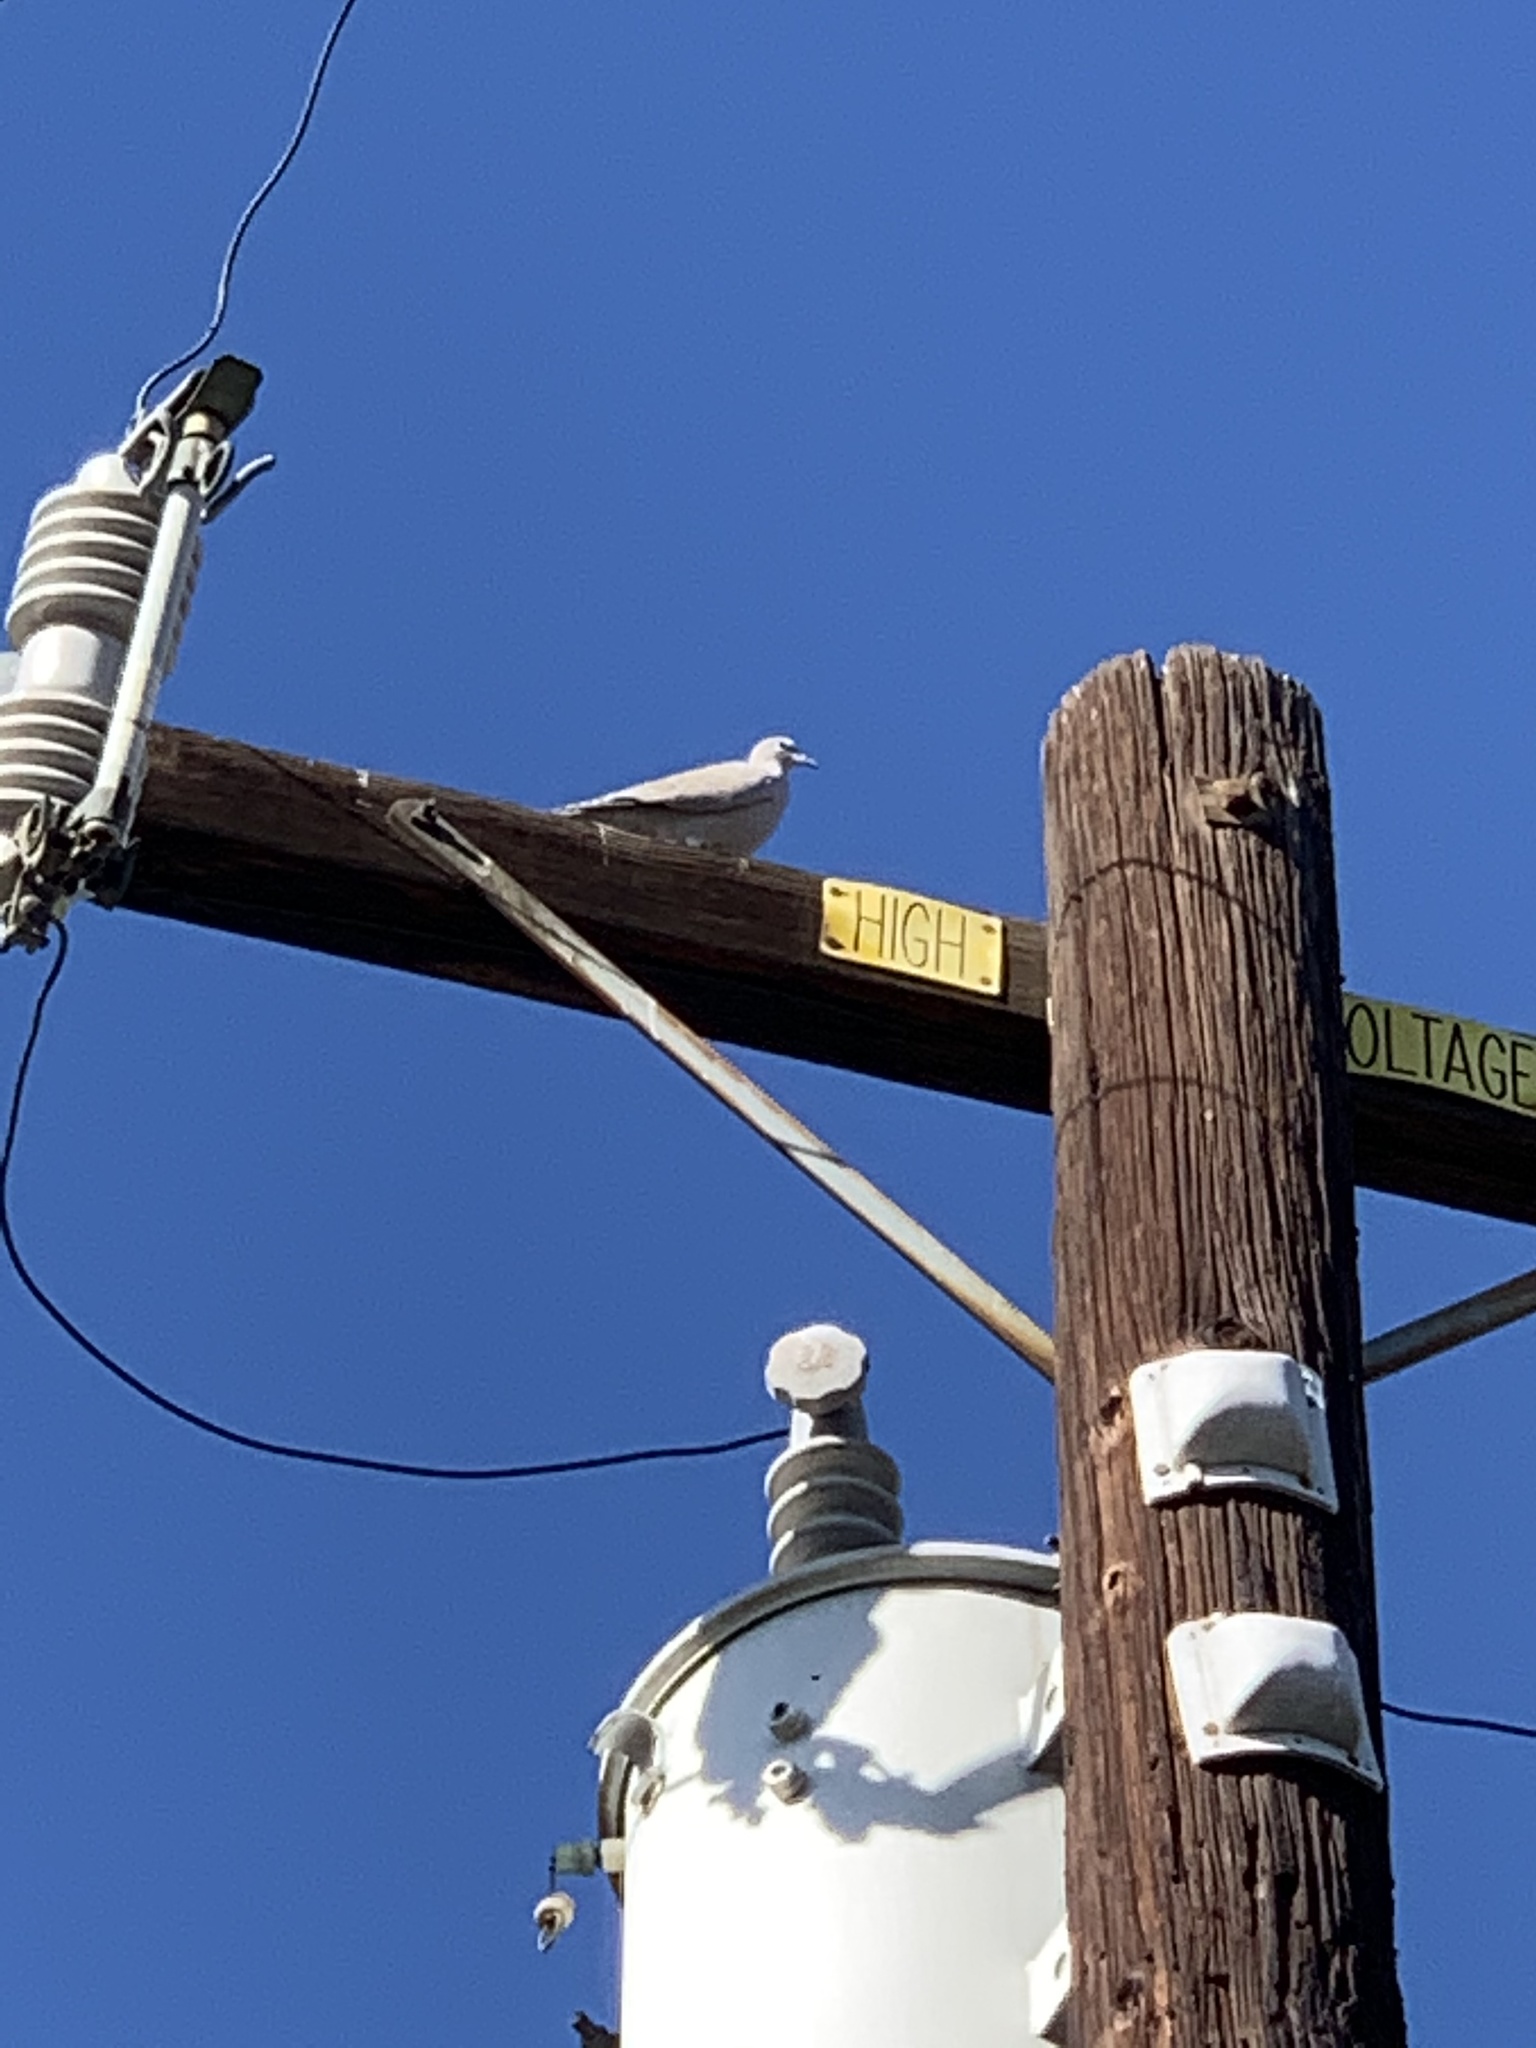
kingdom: Animalia
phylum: Chordata
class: Aves
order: Columbiformes
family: Columbidae
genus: Streptopelia
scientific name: Streptopelia decaocto
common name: Eurasian collared dove
